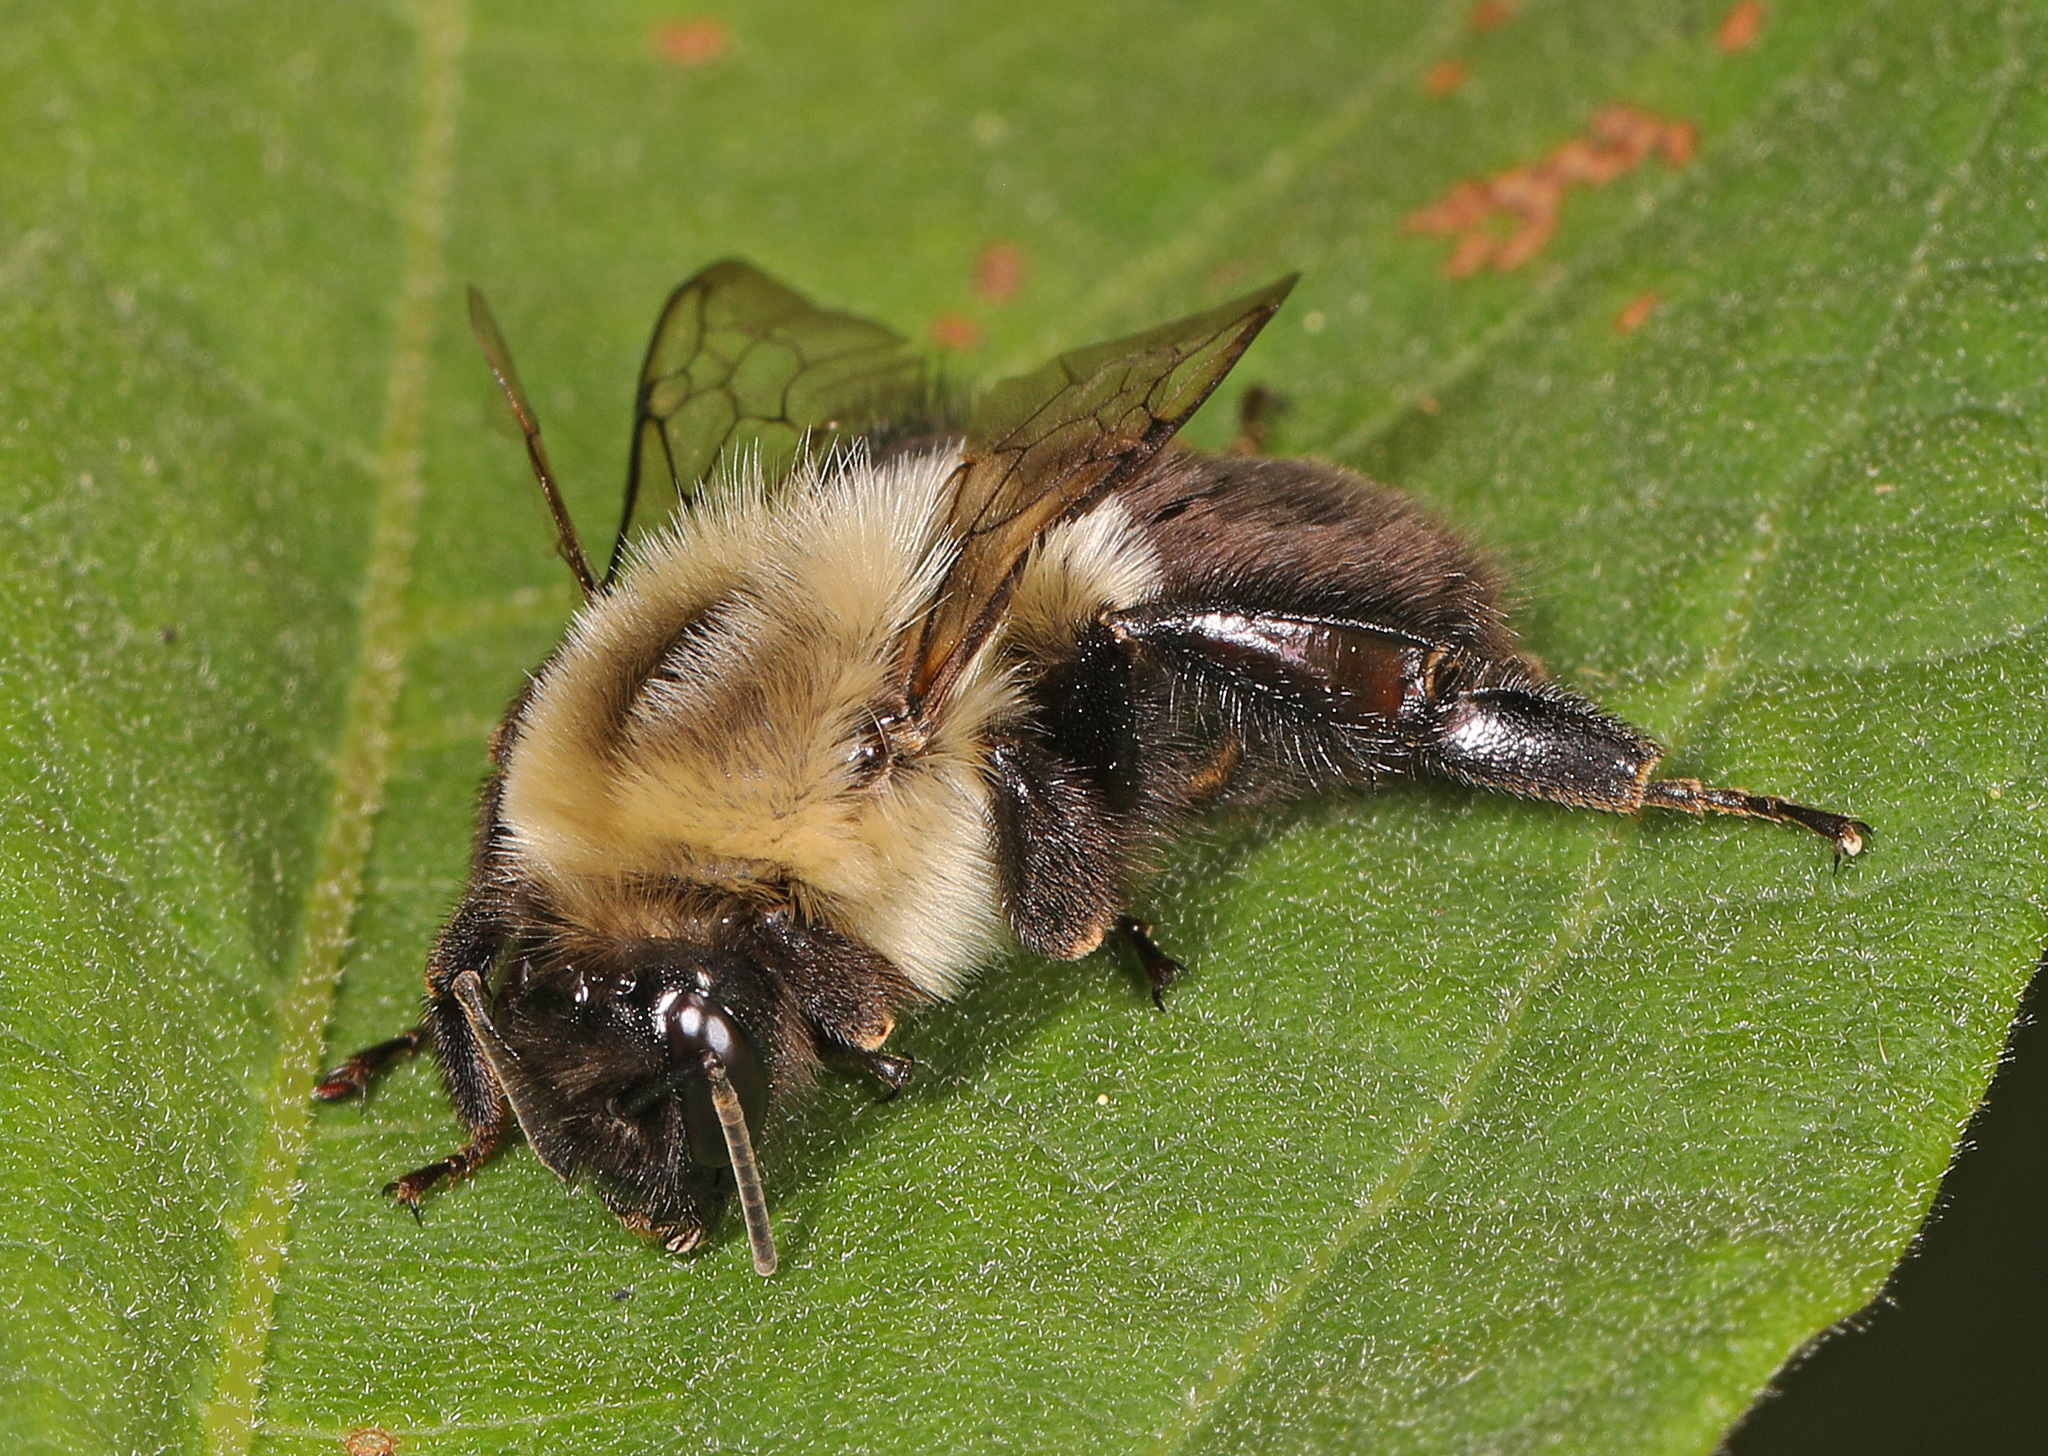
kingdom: Animalia
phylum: Arthropoda
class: Insecta
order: Hymenoptera
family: Apidae
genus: Bombus
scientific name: Bombus impatiens
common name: Common eastern bumble bee
